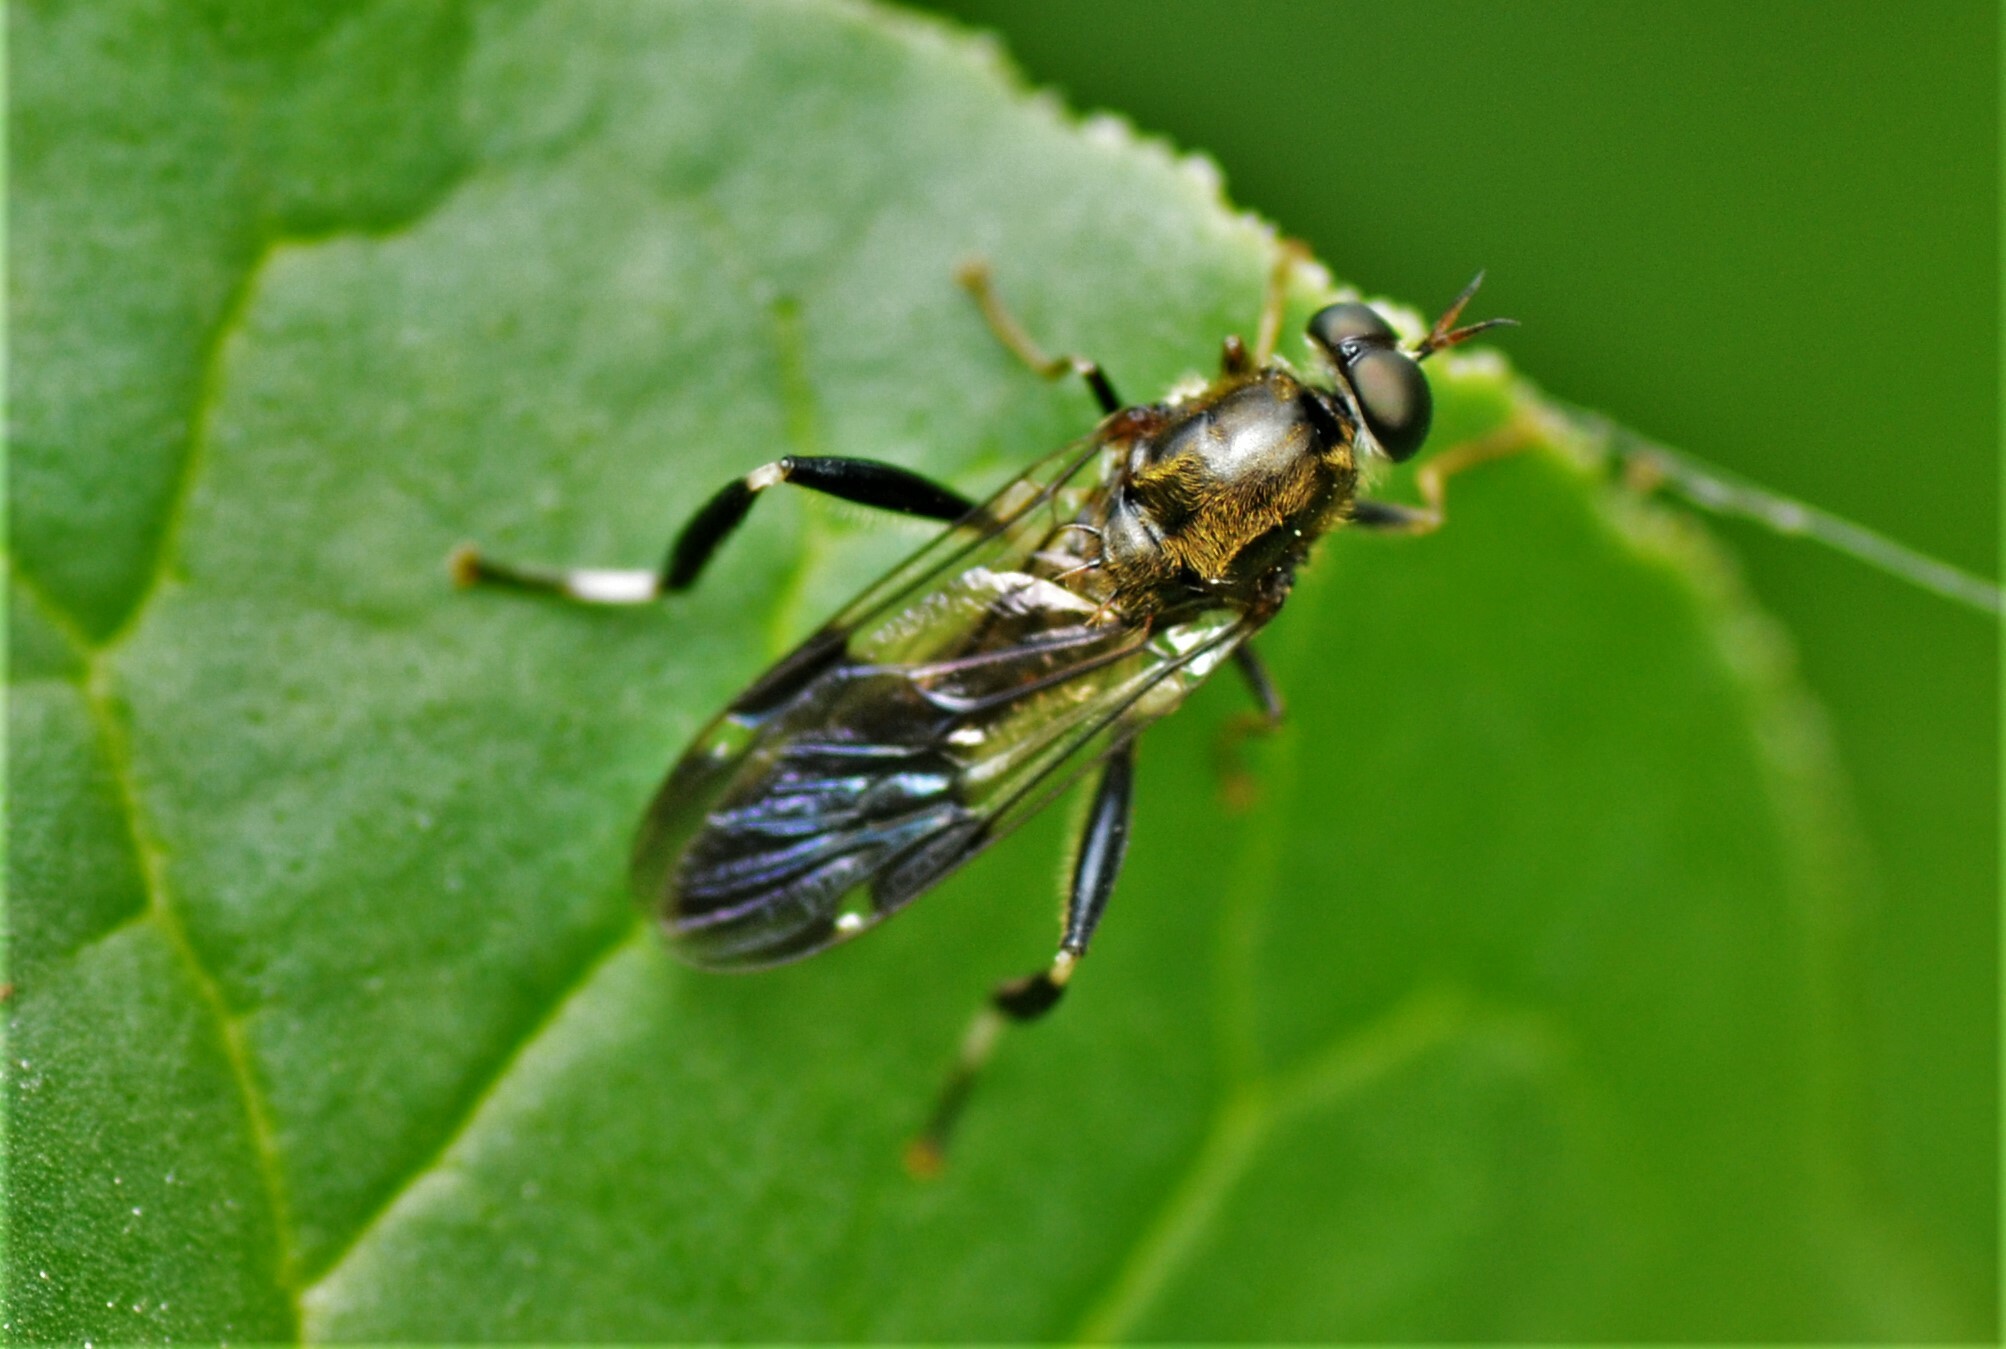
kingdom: Animalia
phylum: Arthropoda
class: Insecta
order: Diptera
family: Stratiomyidae
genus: Exaireta
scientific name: Exaireta spinigera
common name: Blue soldier fly
